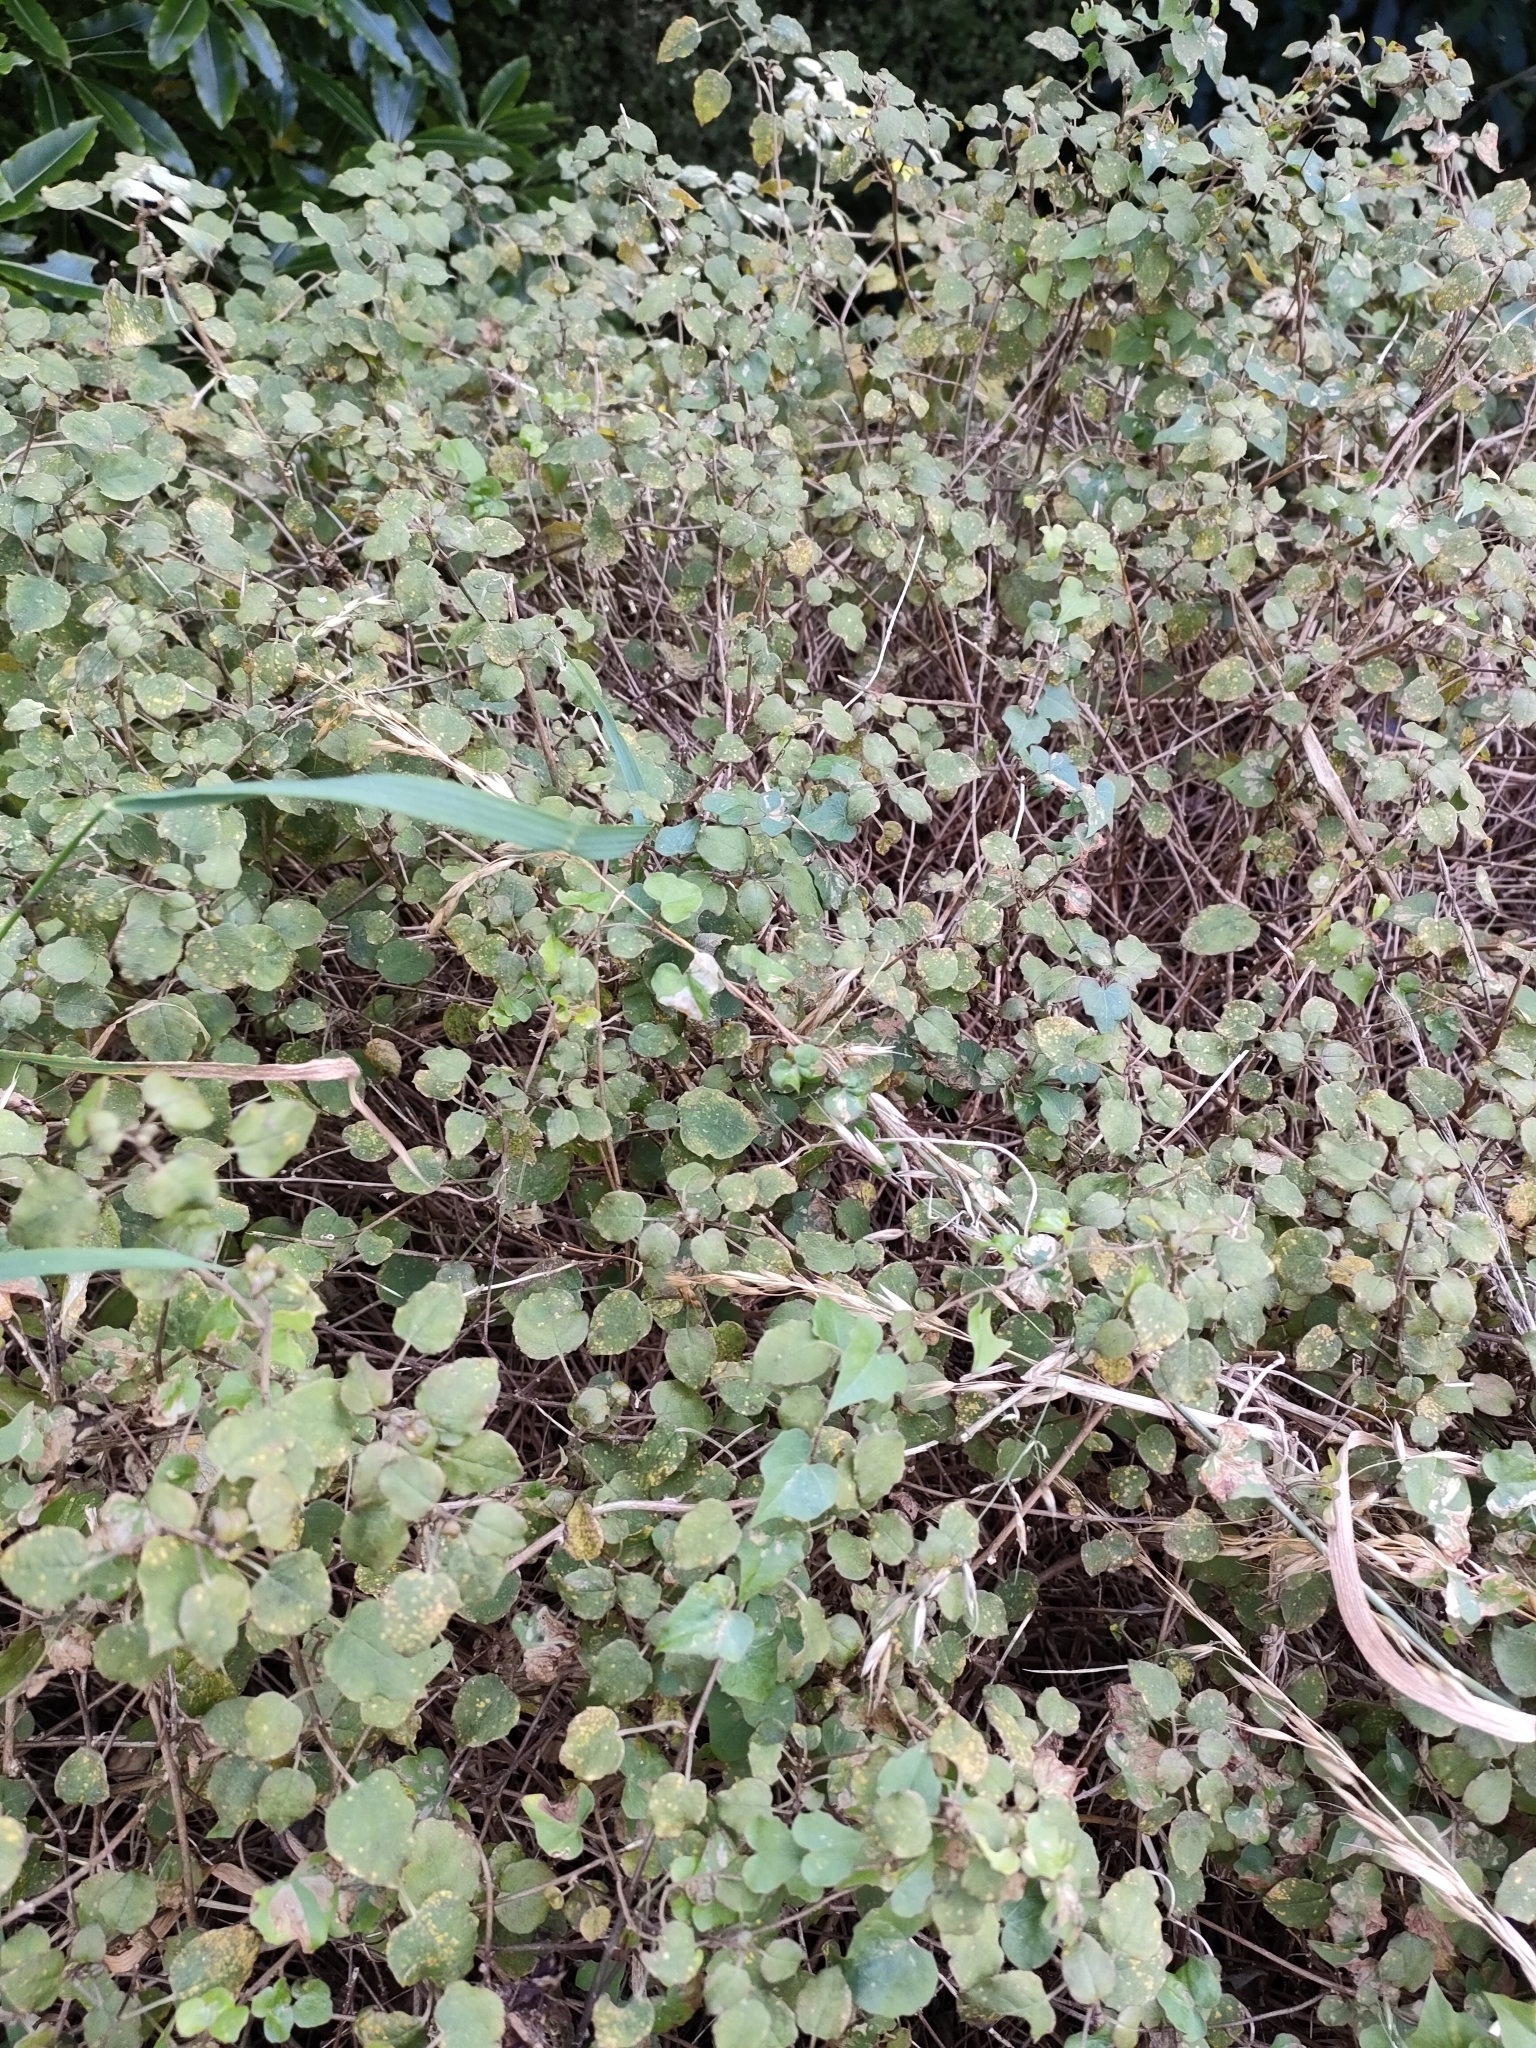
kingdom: Plantae
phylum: Tracheophyta
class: Magnoliopsida
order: Myrtales
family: Onagraceae
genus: Fuchsia
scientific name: Fuchsia perscandens
